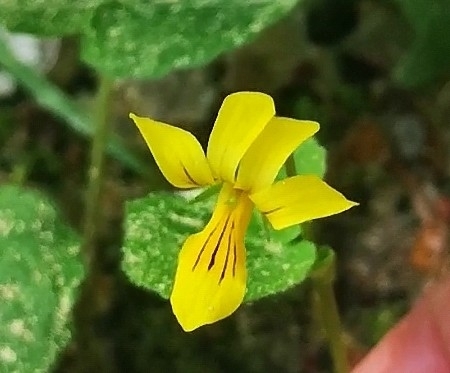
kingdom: Plantae
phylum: Tracheophyta
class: Magnoliopsida
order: Malpighiales
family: Violaceae
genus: Viola
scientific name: Viola biflora
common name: Alpine yellow violet
